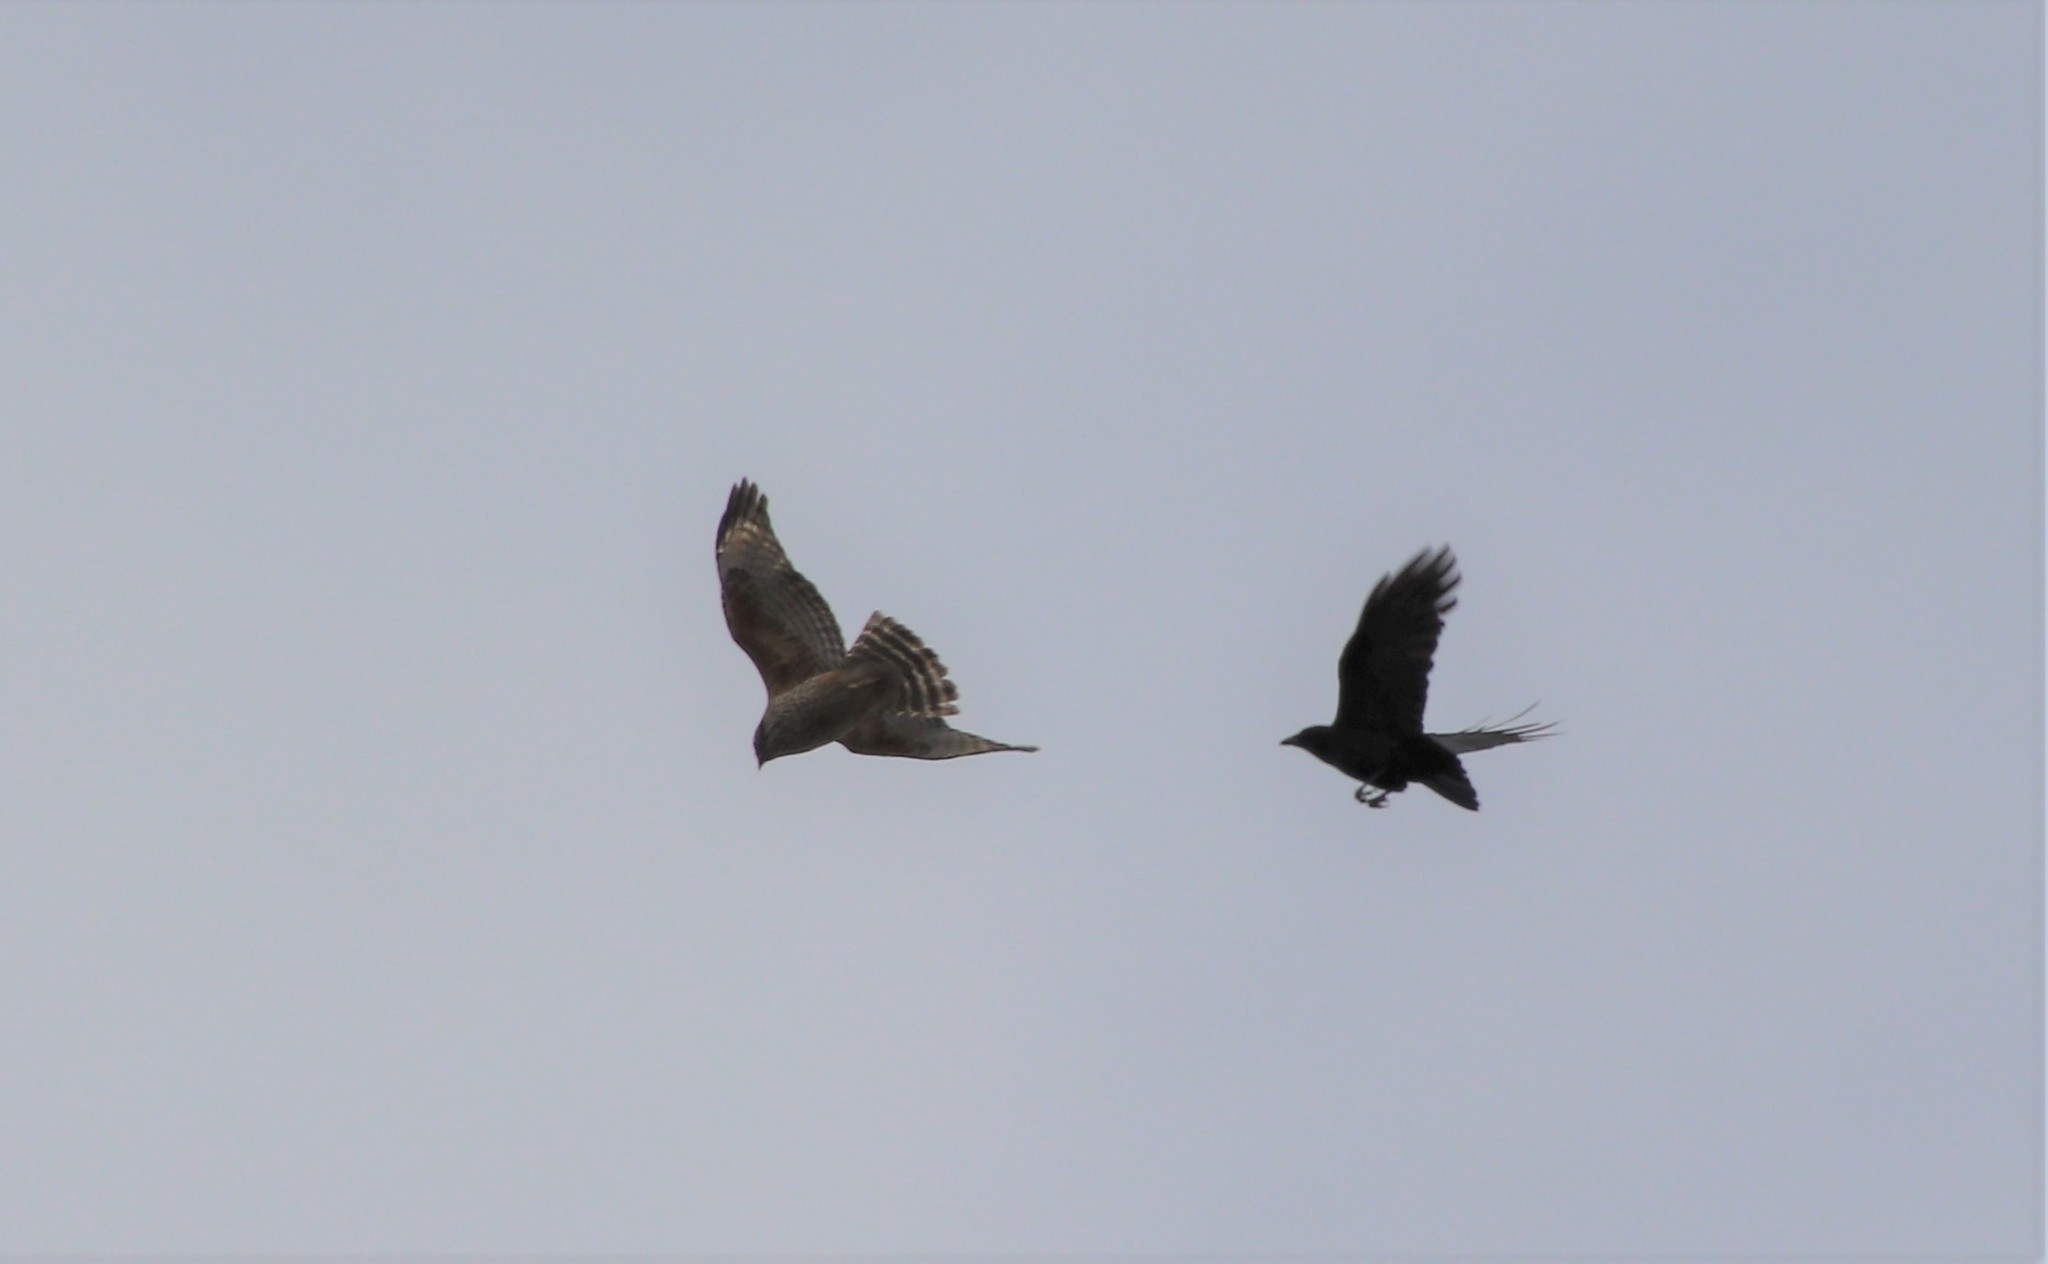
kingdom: Animalia
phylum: Chordata
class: Aves
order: Accipitriformes
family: Accipitridae
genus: Buteo
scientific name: Buteo lineatus
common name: Red-shouldered hawk
